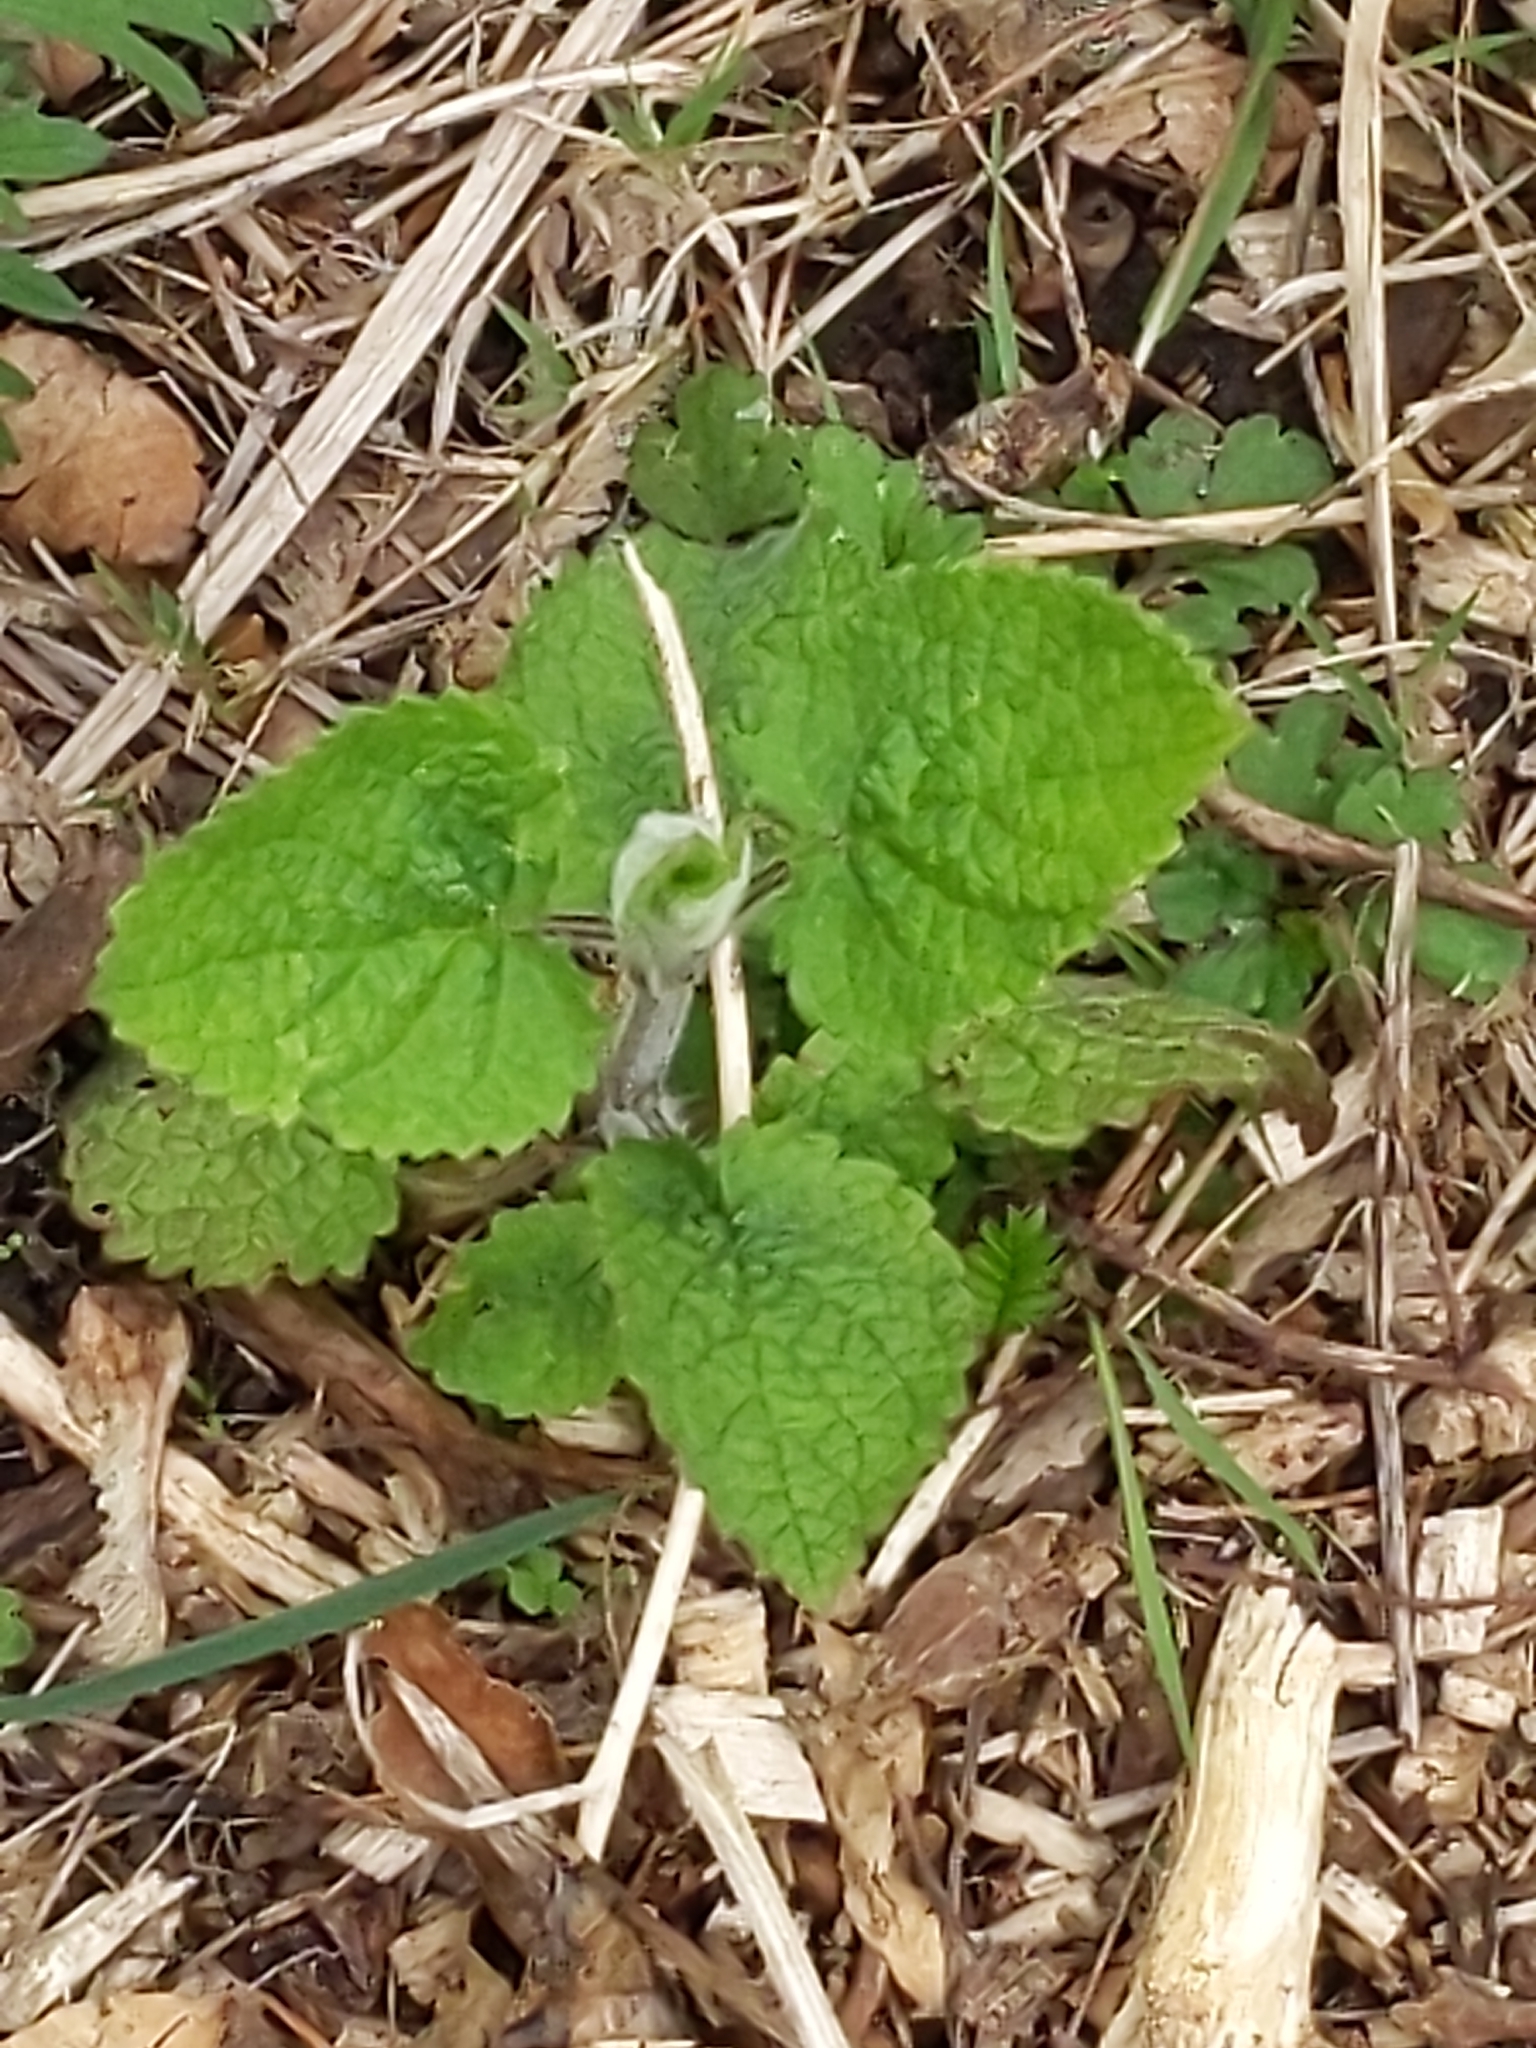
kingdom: Plantae
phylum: Tracheophyta
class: Magnoliopsida
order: Lamiales
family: Lamiaceae
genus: Stachys
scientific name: Stachys sylvatica
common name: Hedge woundwort
